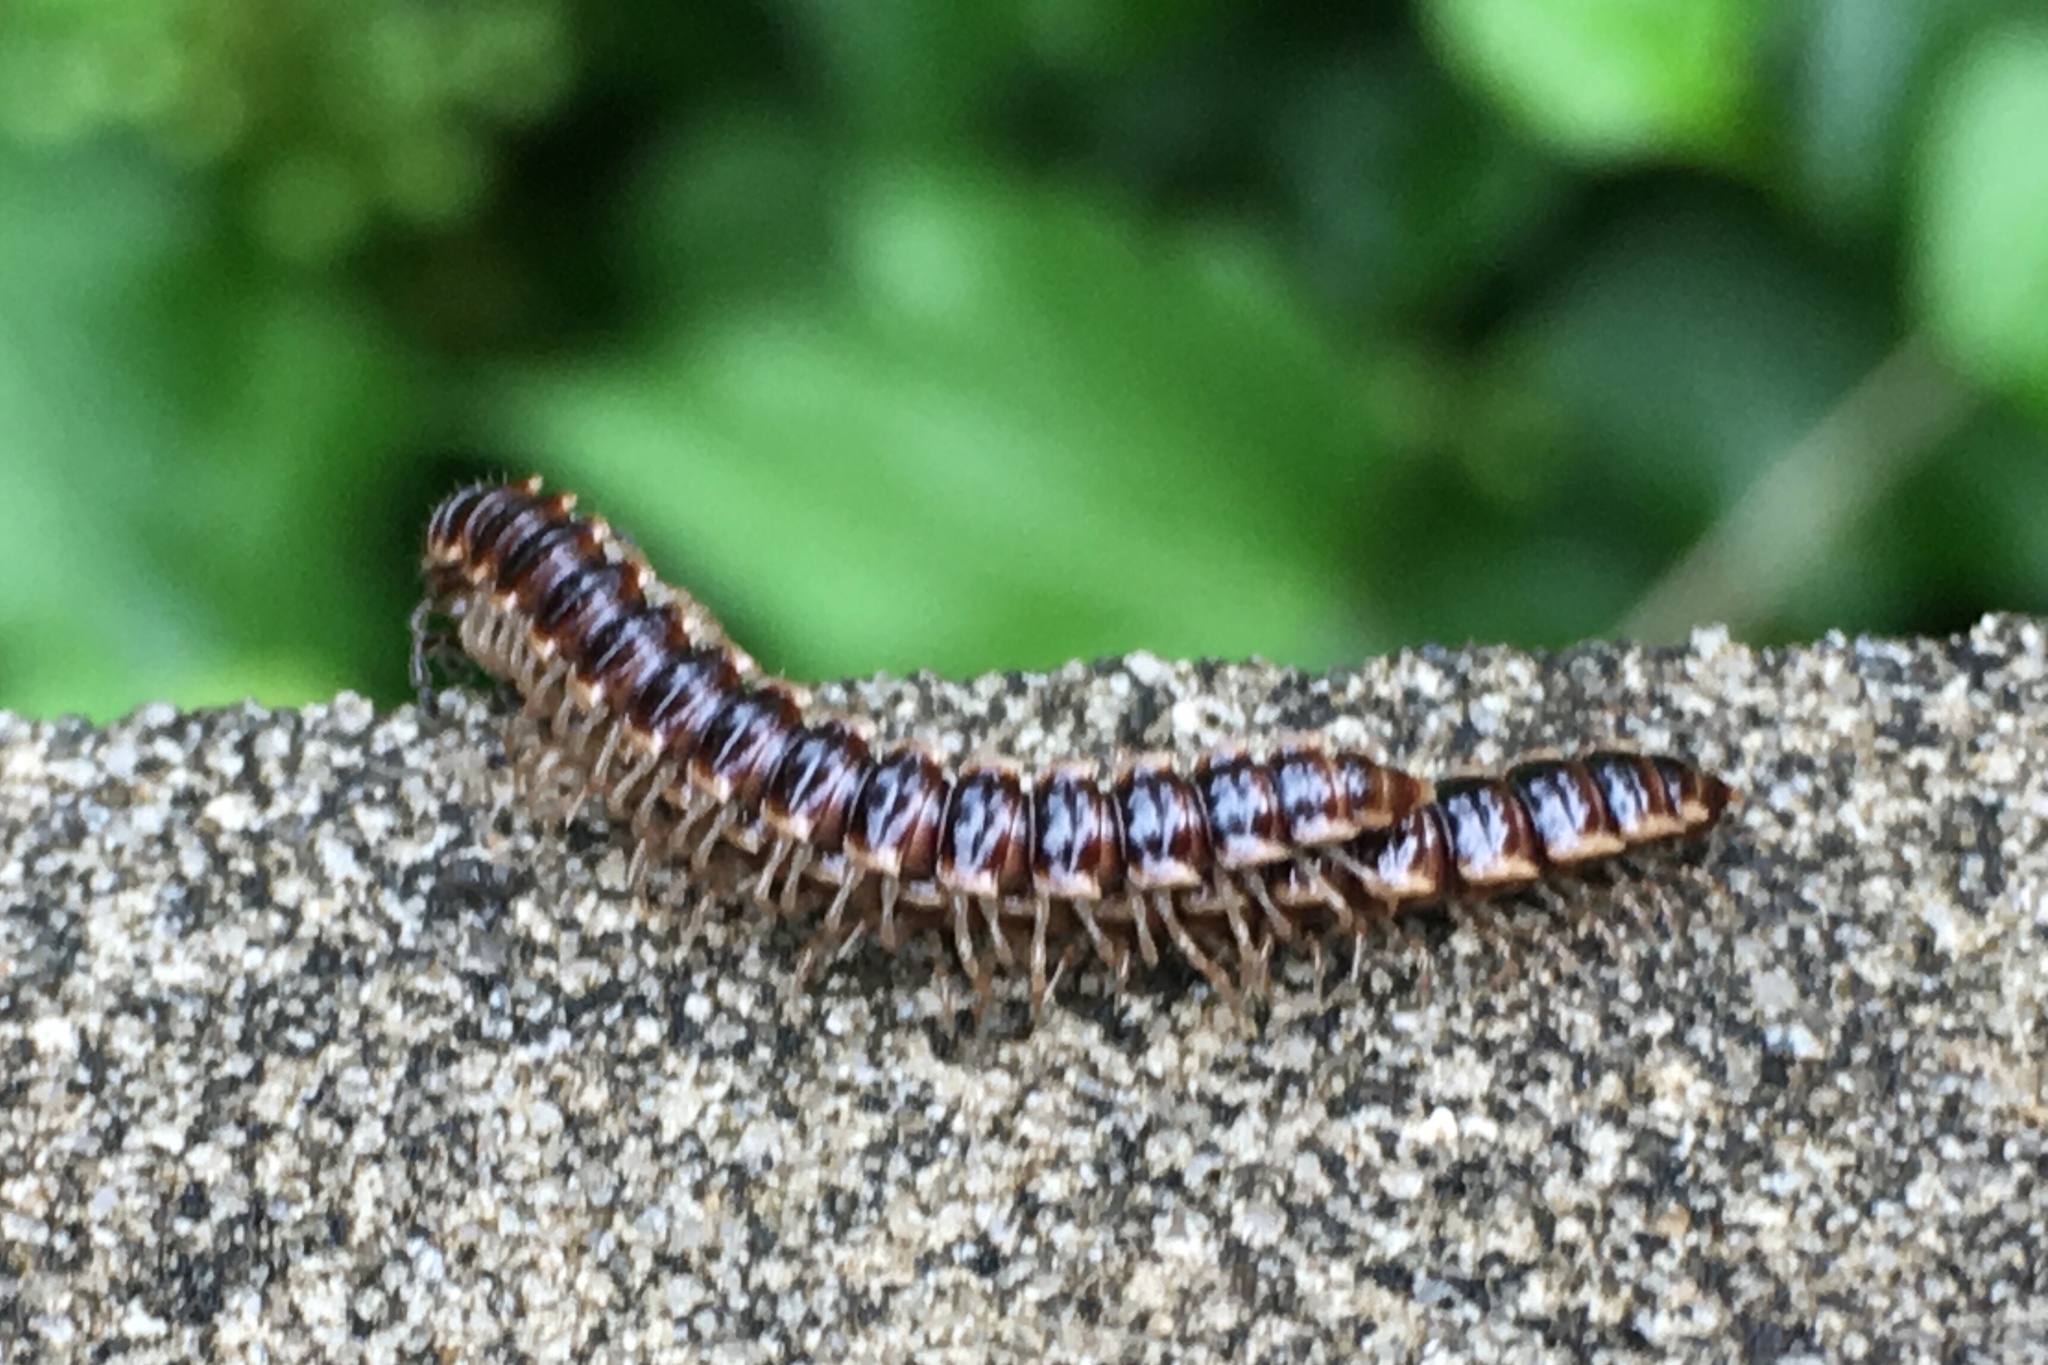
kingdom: Animalia
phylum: Arthropoda
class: Diplopoda
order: Polydesmida
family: Paradoxosomatidae
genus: Oxidus
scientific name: Oxidus gracilis
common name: Greenhouse millipede
